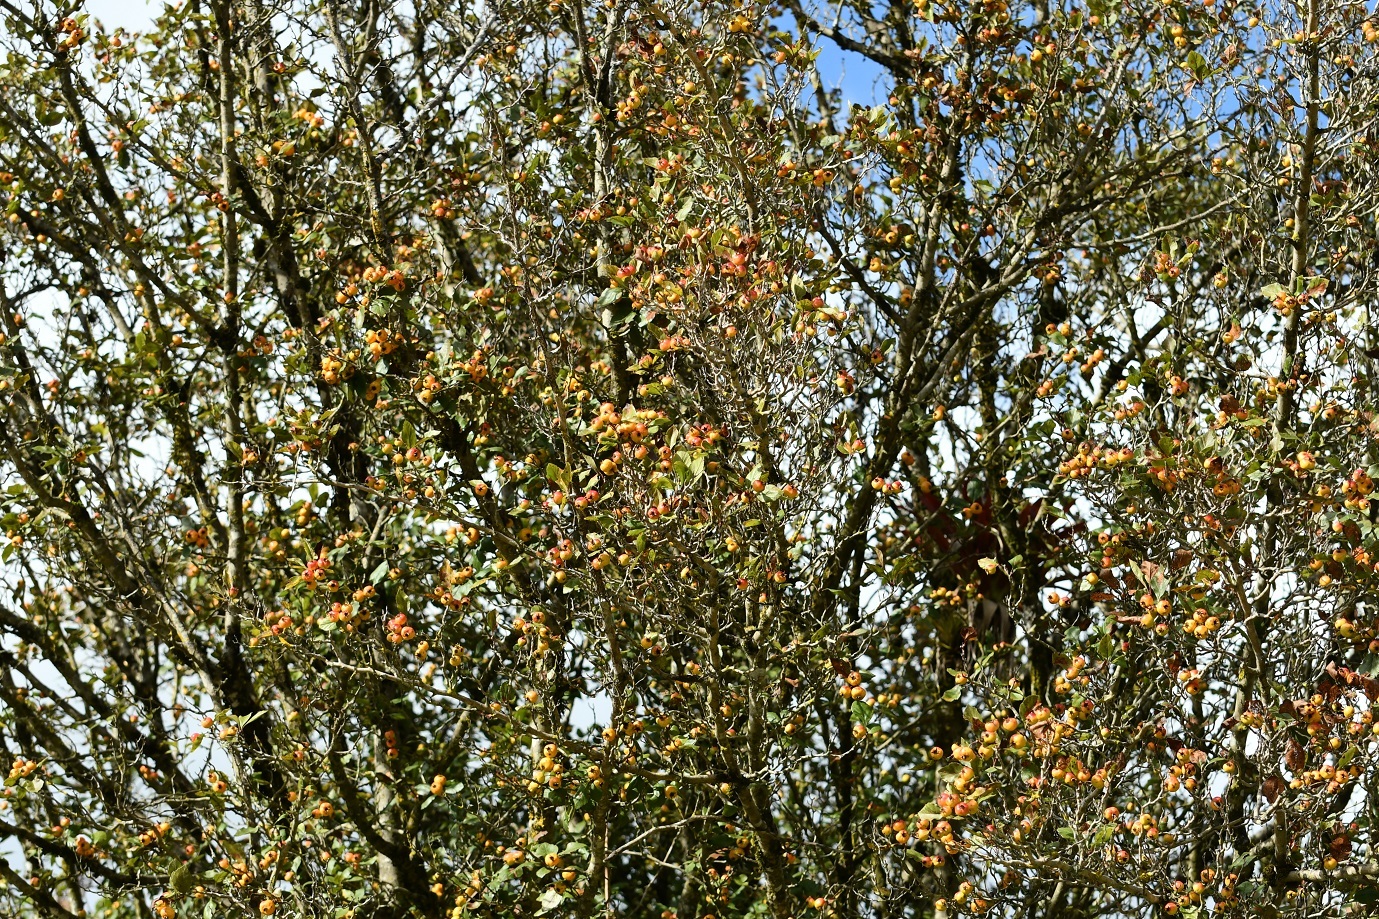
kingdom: Plantae
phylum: Tracheophyta
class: Magnoliopsida
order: Rosales
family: Rosaceae
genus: Crataegus
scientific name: Crataegus mexicana
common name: Mexican hawthorn
